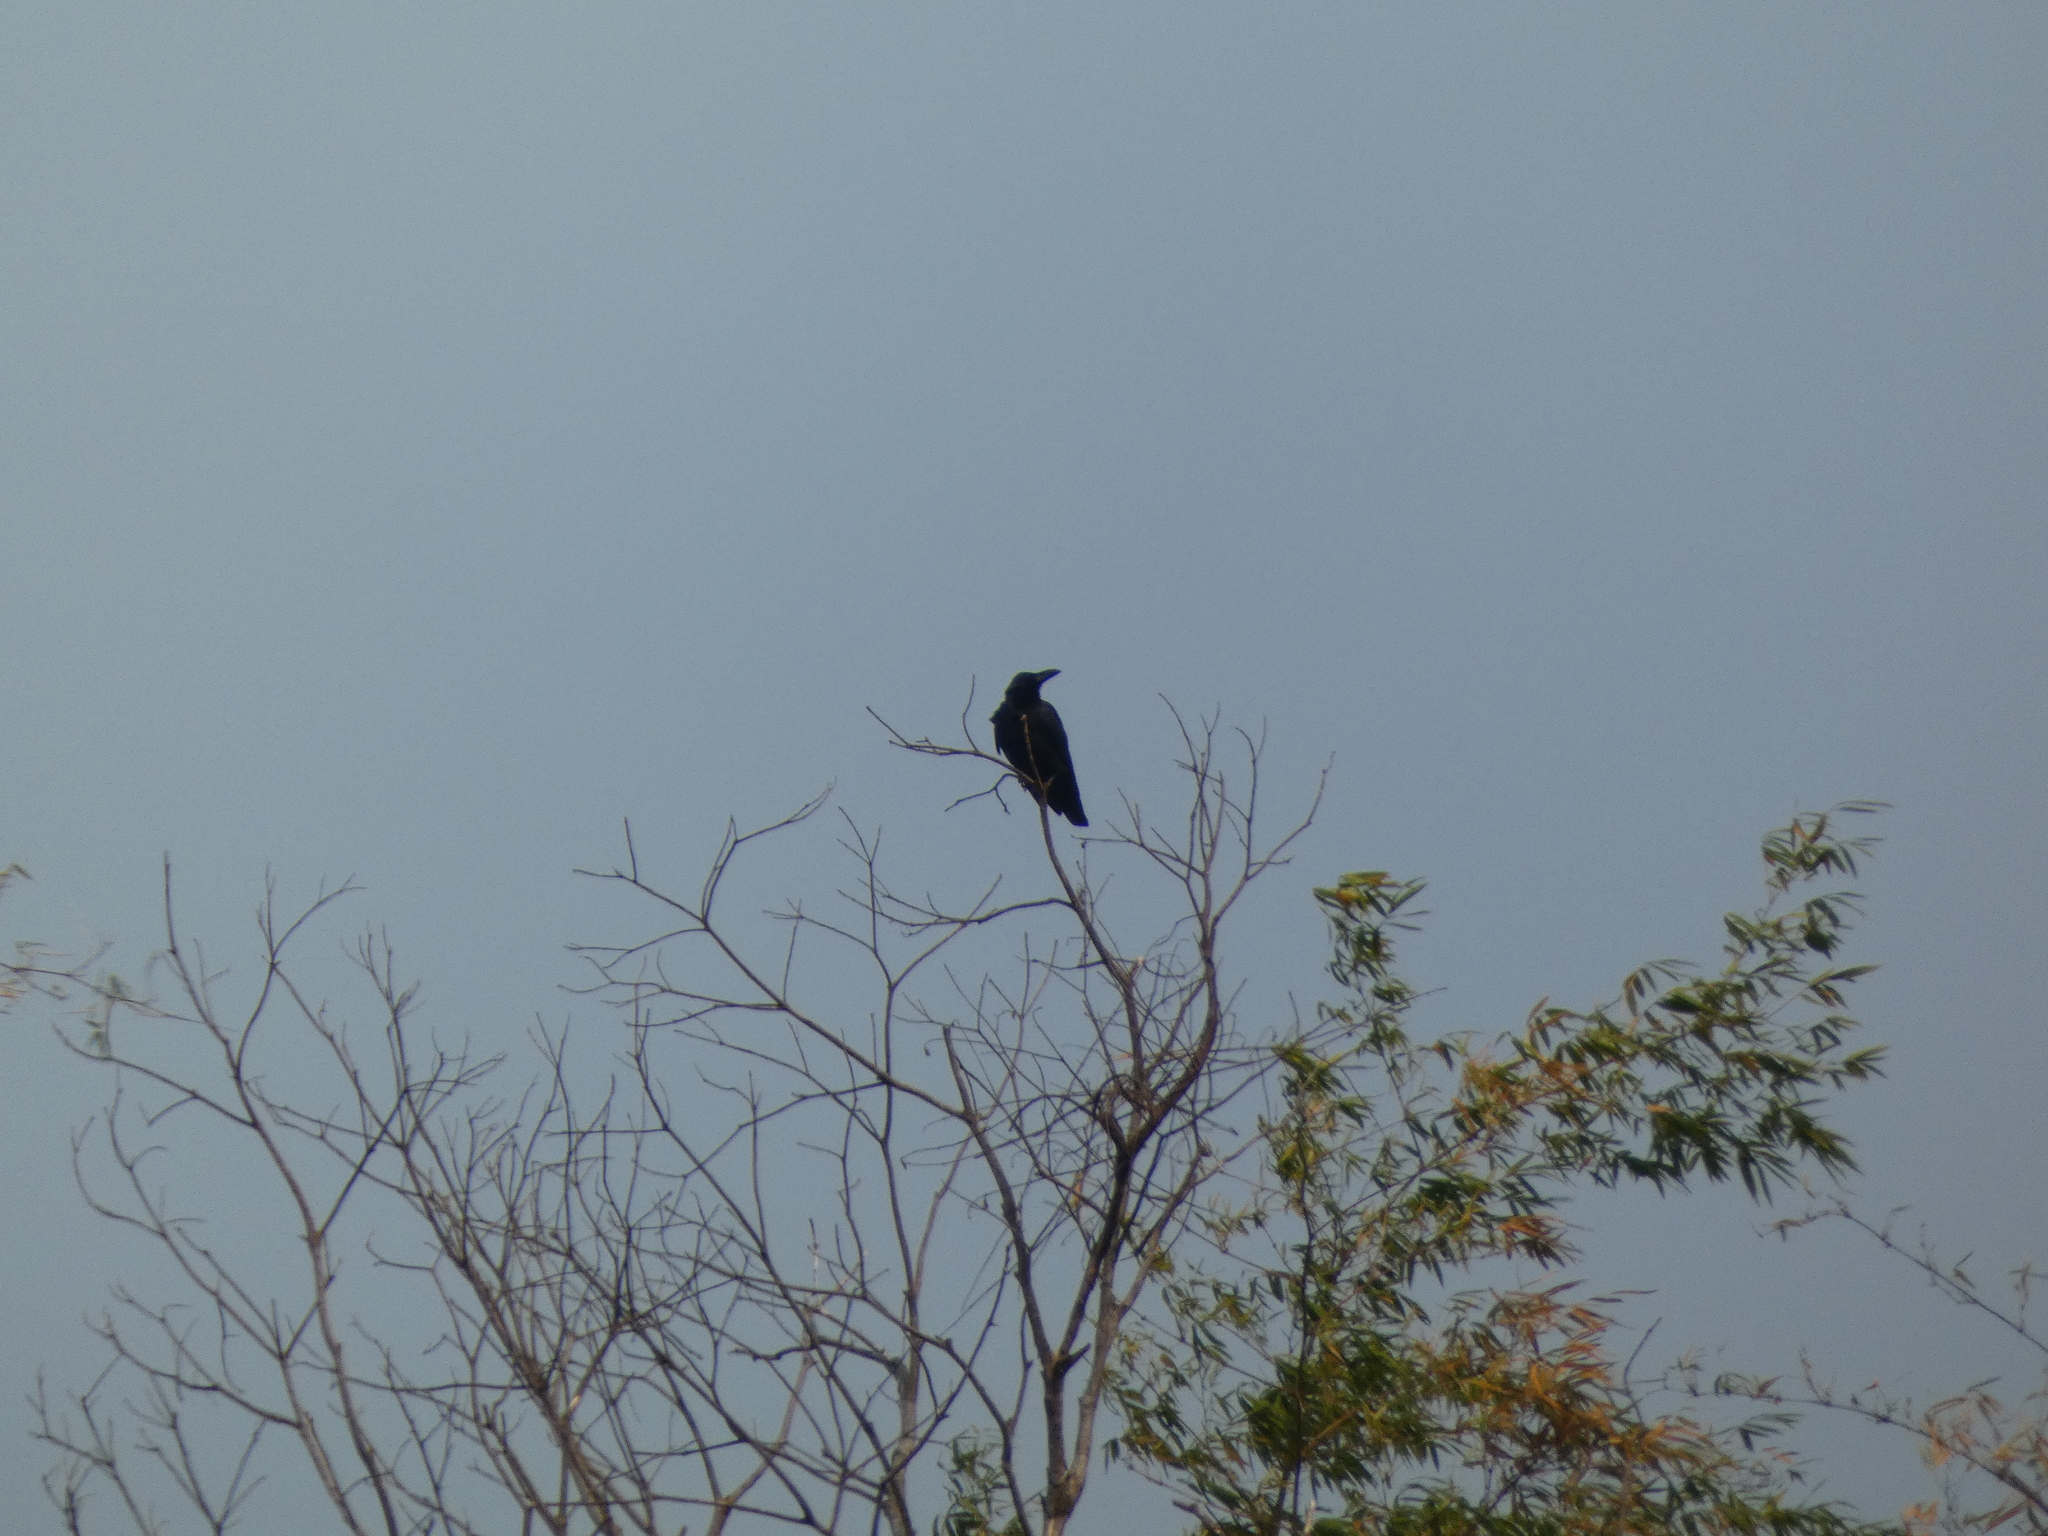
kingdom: Animalia
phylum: Chordata
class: Aves
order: Passeriformes
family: Corvidae
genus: Corvus
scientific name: Corvus macrorhynchos
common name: Large-billed crow
